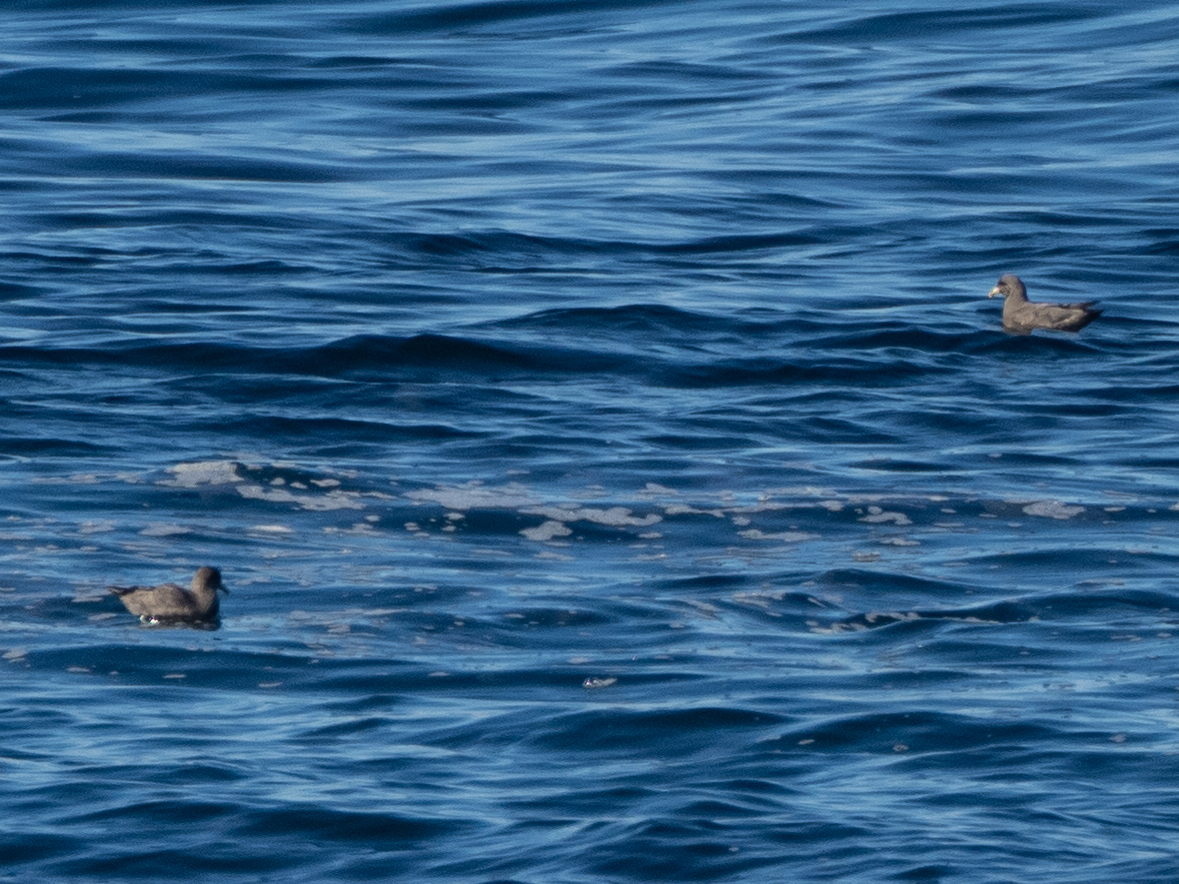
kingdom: Animalia
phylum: Chordata
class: Aves
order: Procellariiformes
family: Procellariidae
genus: Fulmarus
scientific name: Fulmarus glacialis
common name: Northern fulmar
